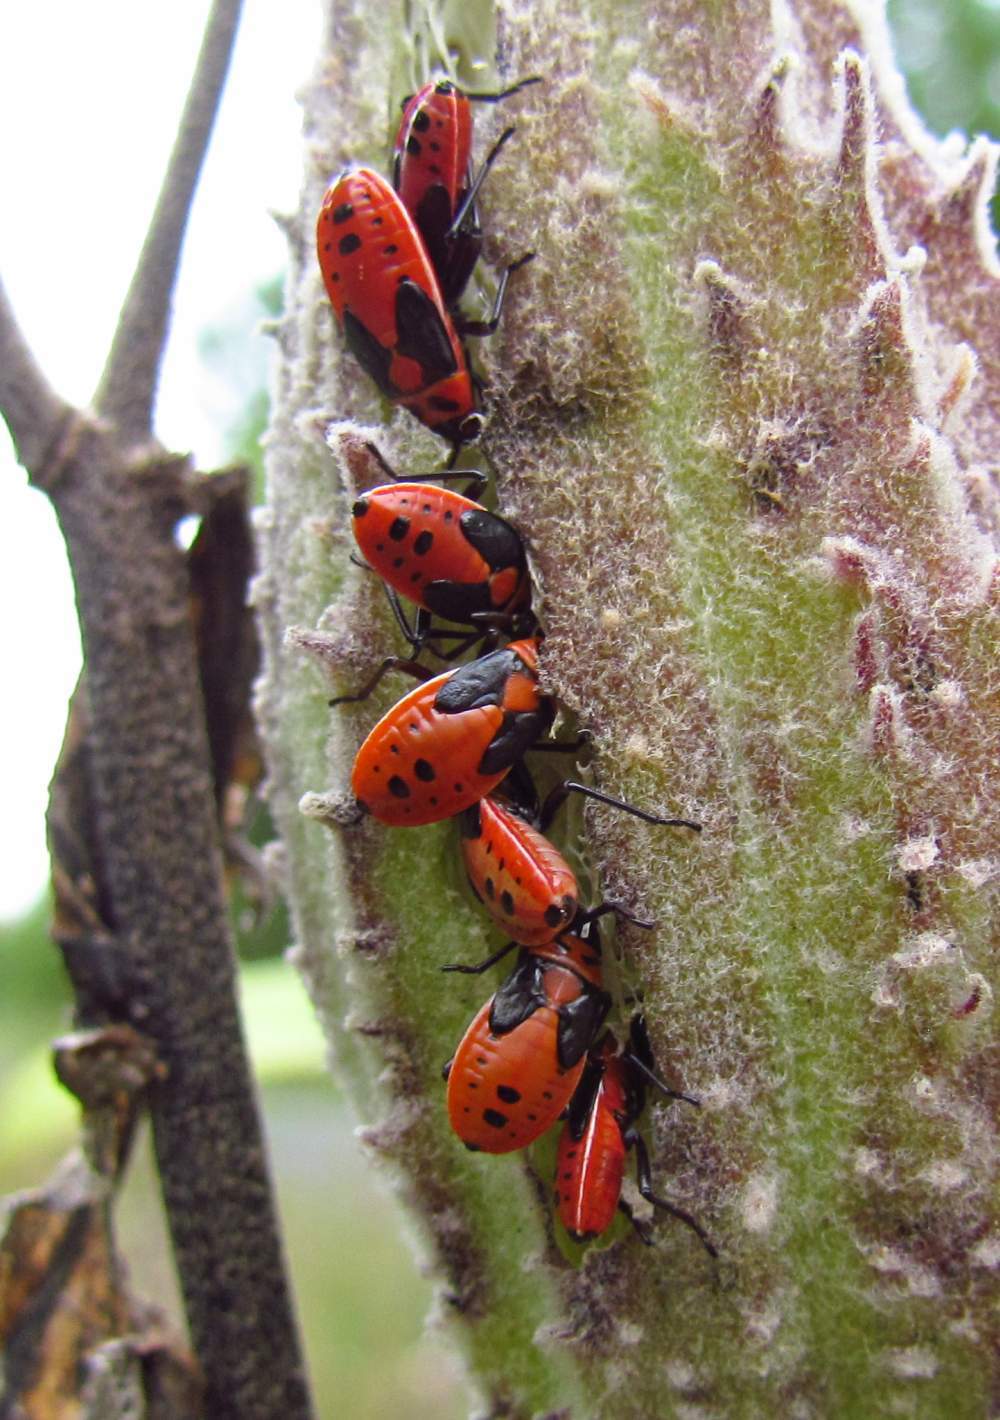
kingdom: Animalia
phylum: Arthropoda
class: Insecta
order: Hemiptera
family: Lygaeidae
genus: Lygaeus
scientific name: Lygaeus kalmii
